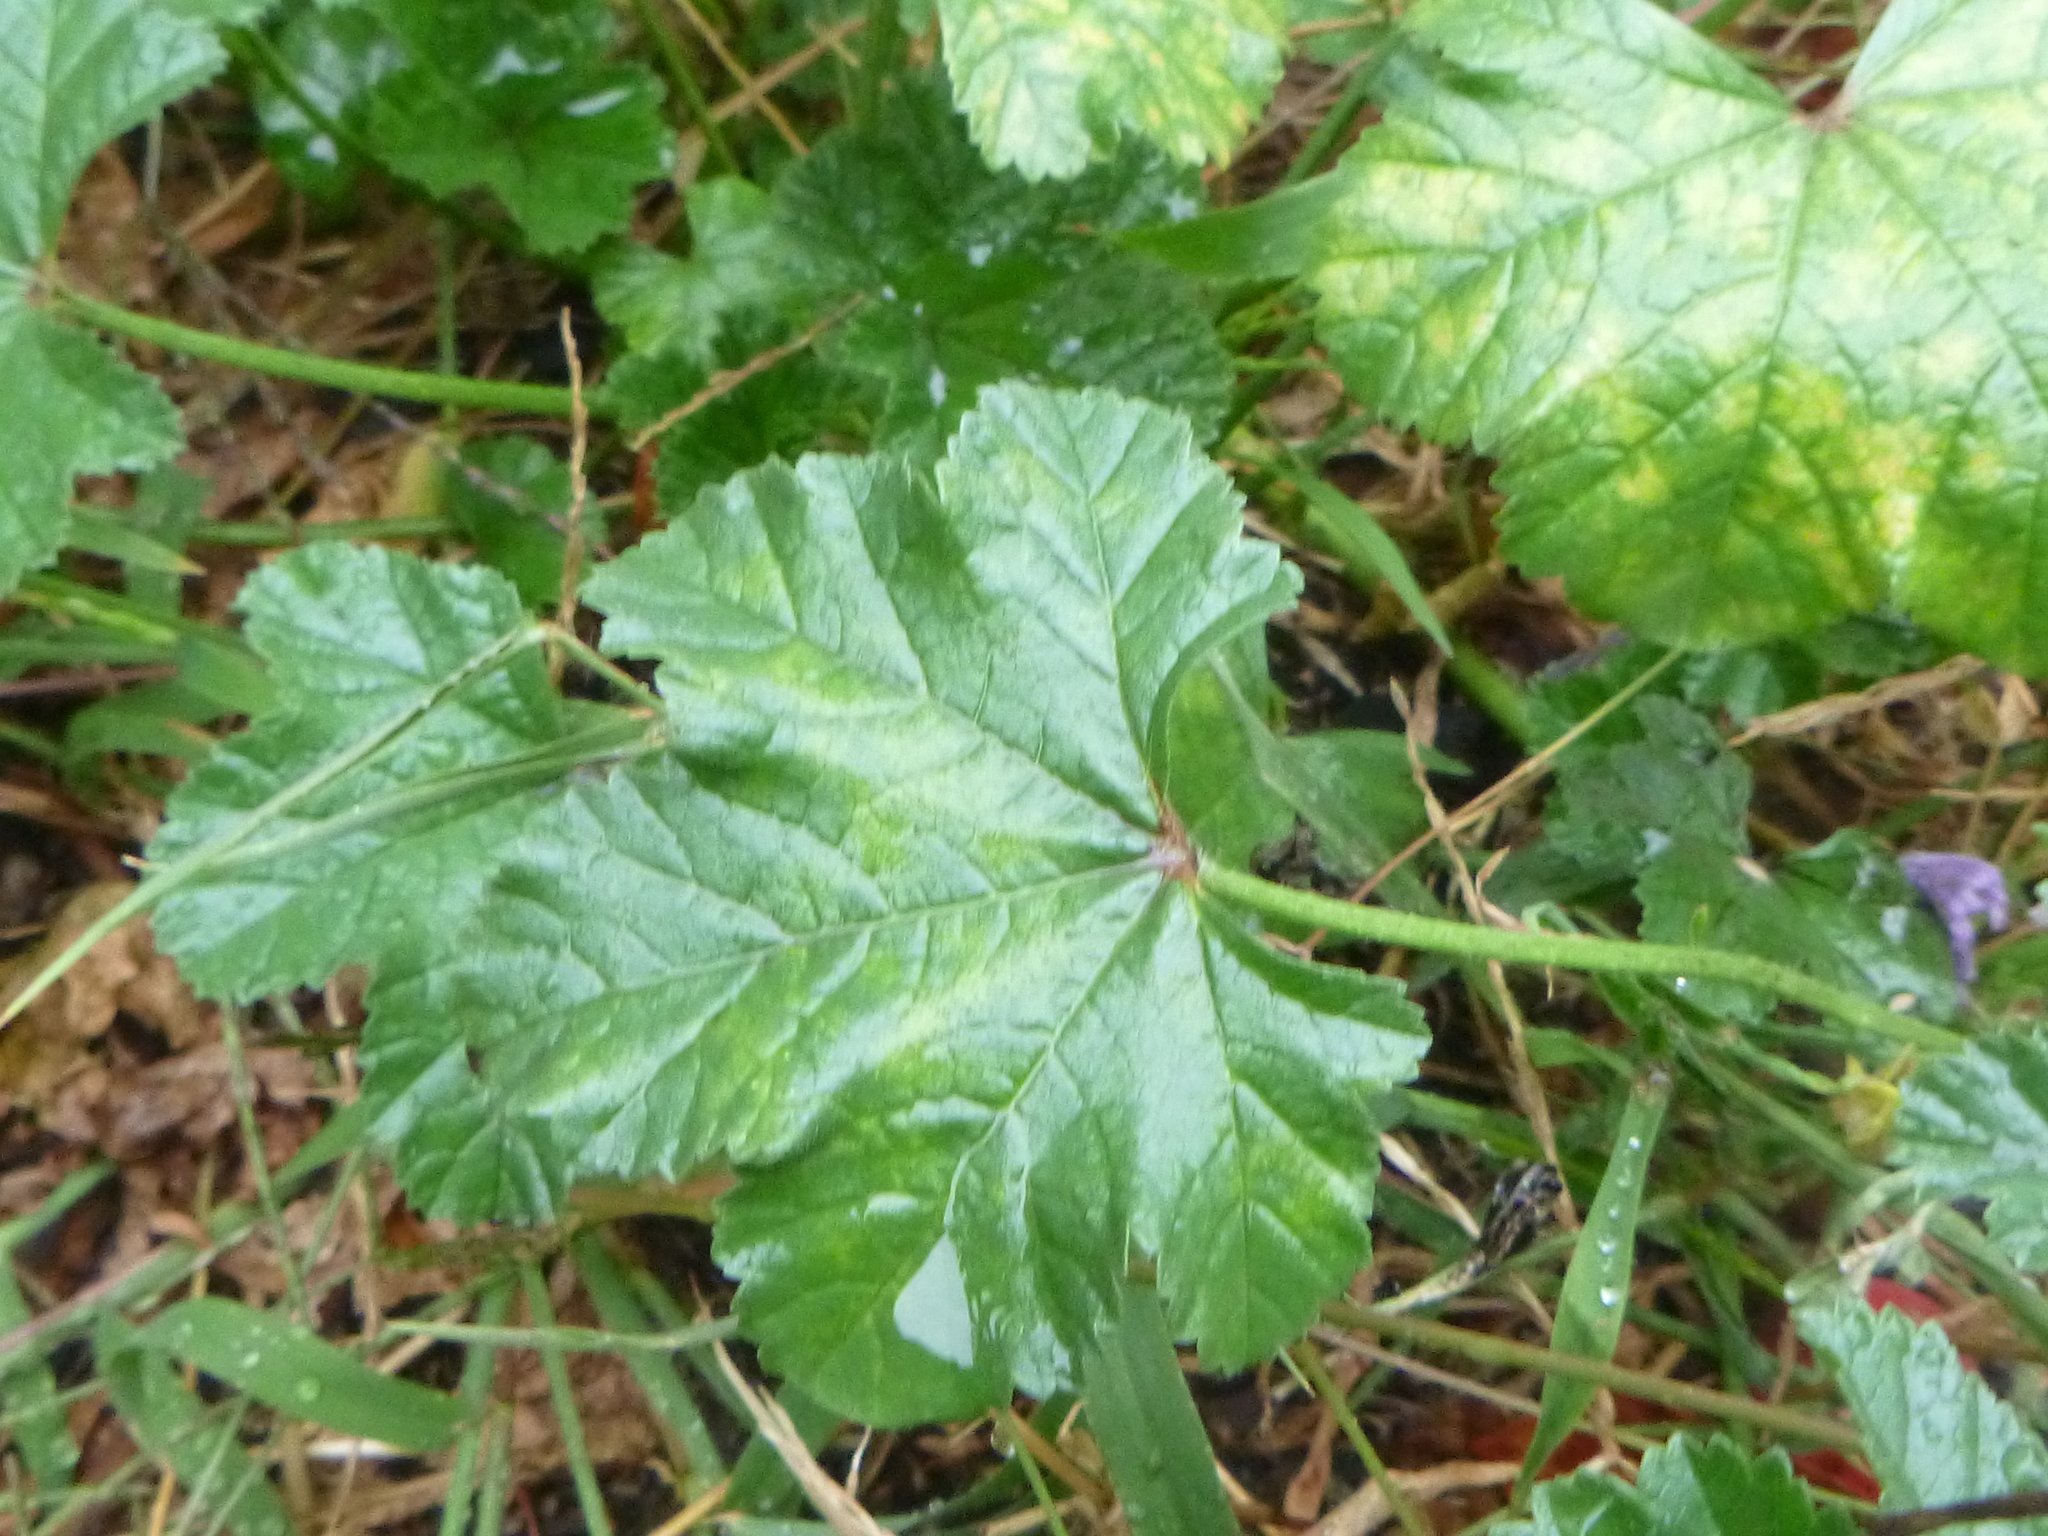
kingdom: Plantae
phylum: Tracheophyta
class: Magnoliopsida
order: Malvales
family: Malvaceae
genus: Malva
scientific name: Malva sylvestris
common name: Common mallow
